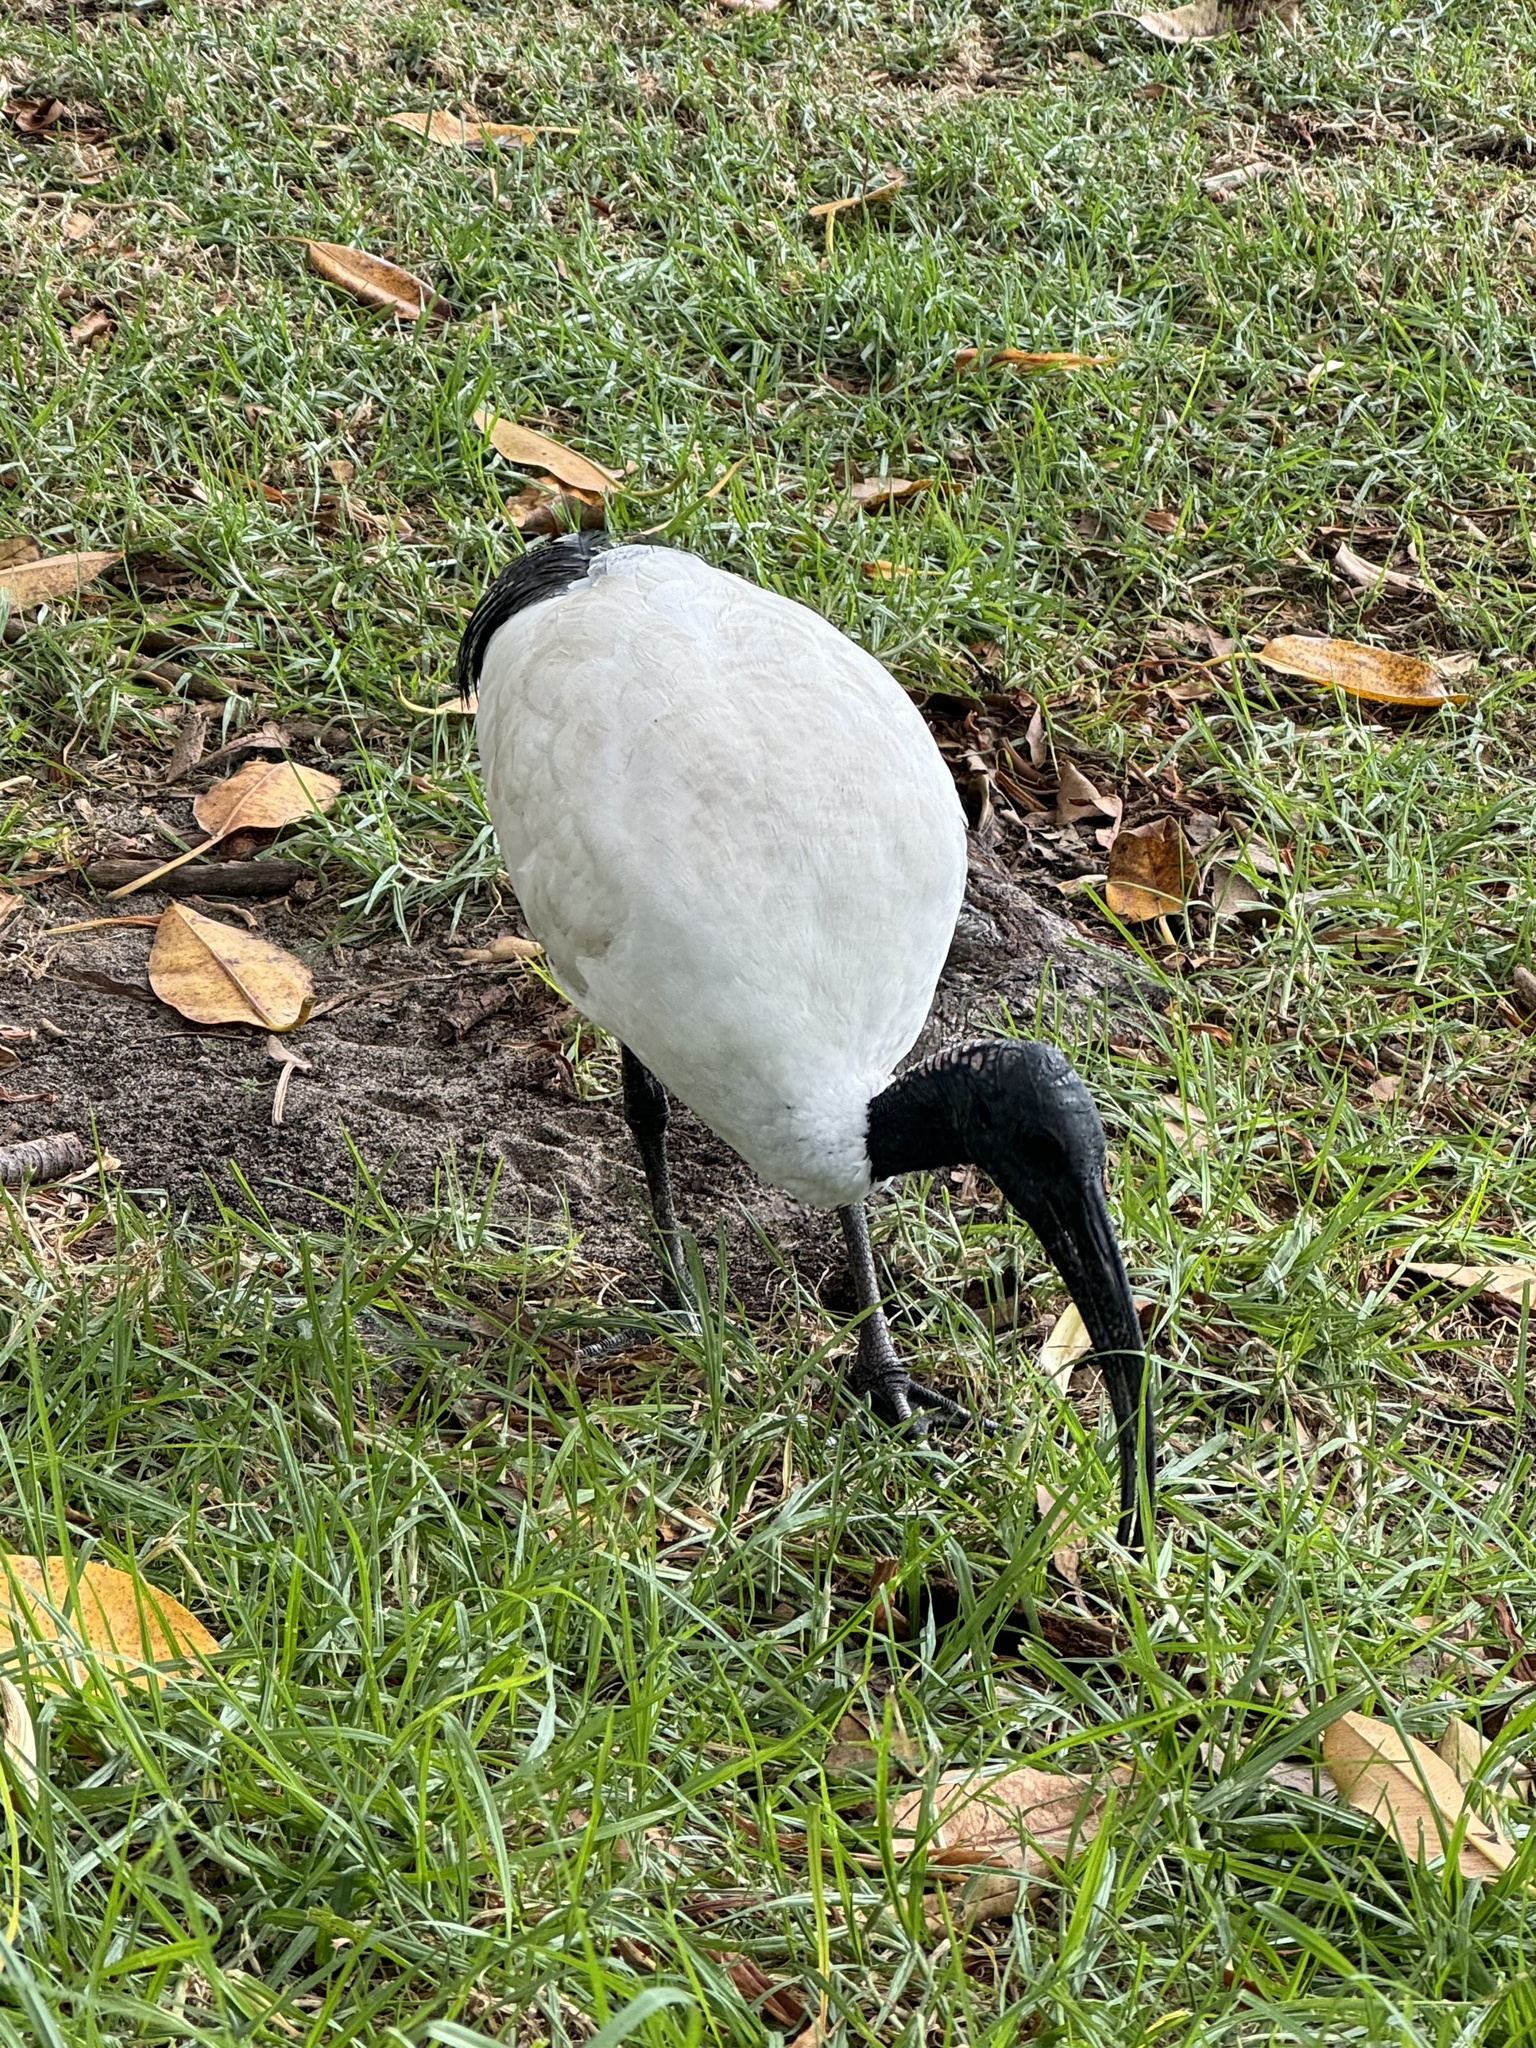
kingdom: Animalia
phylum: Chordata
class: Aves
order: Pelecaniformes
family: Threskiornithidae
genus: Threskiornis
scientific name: Threskiornis molucca
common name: Australian white ibis
